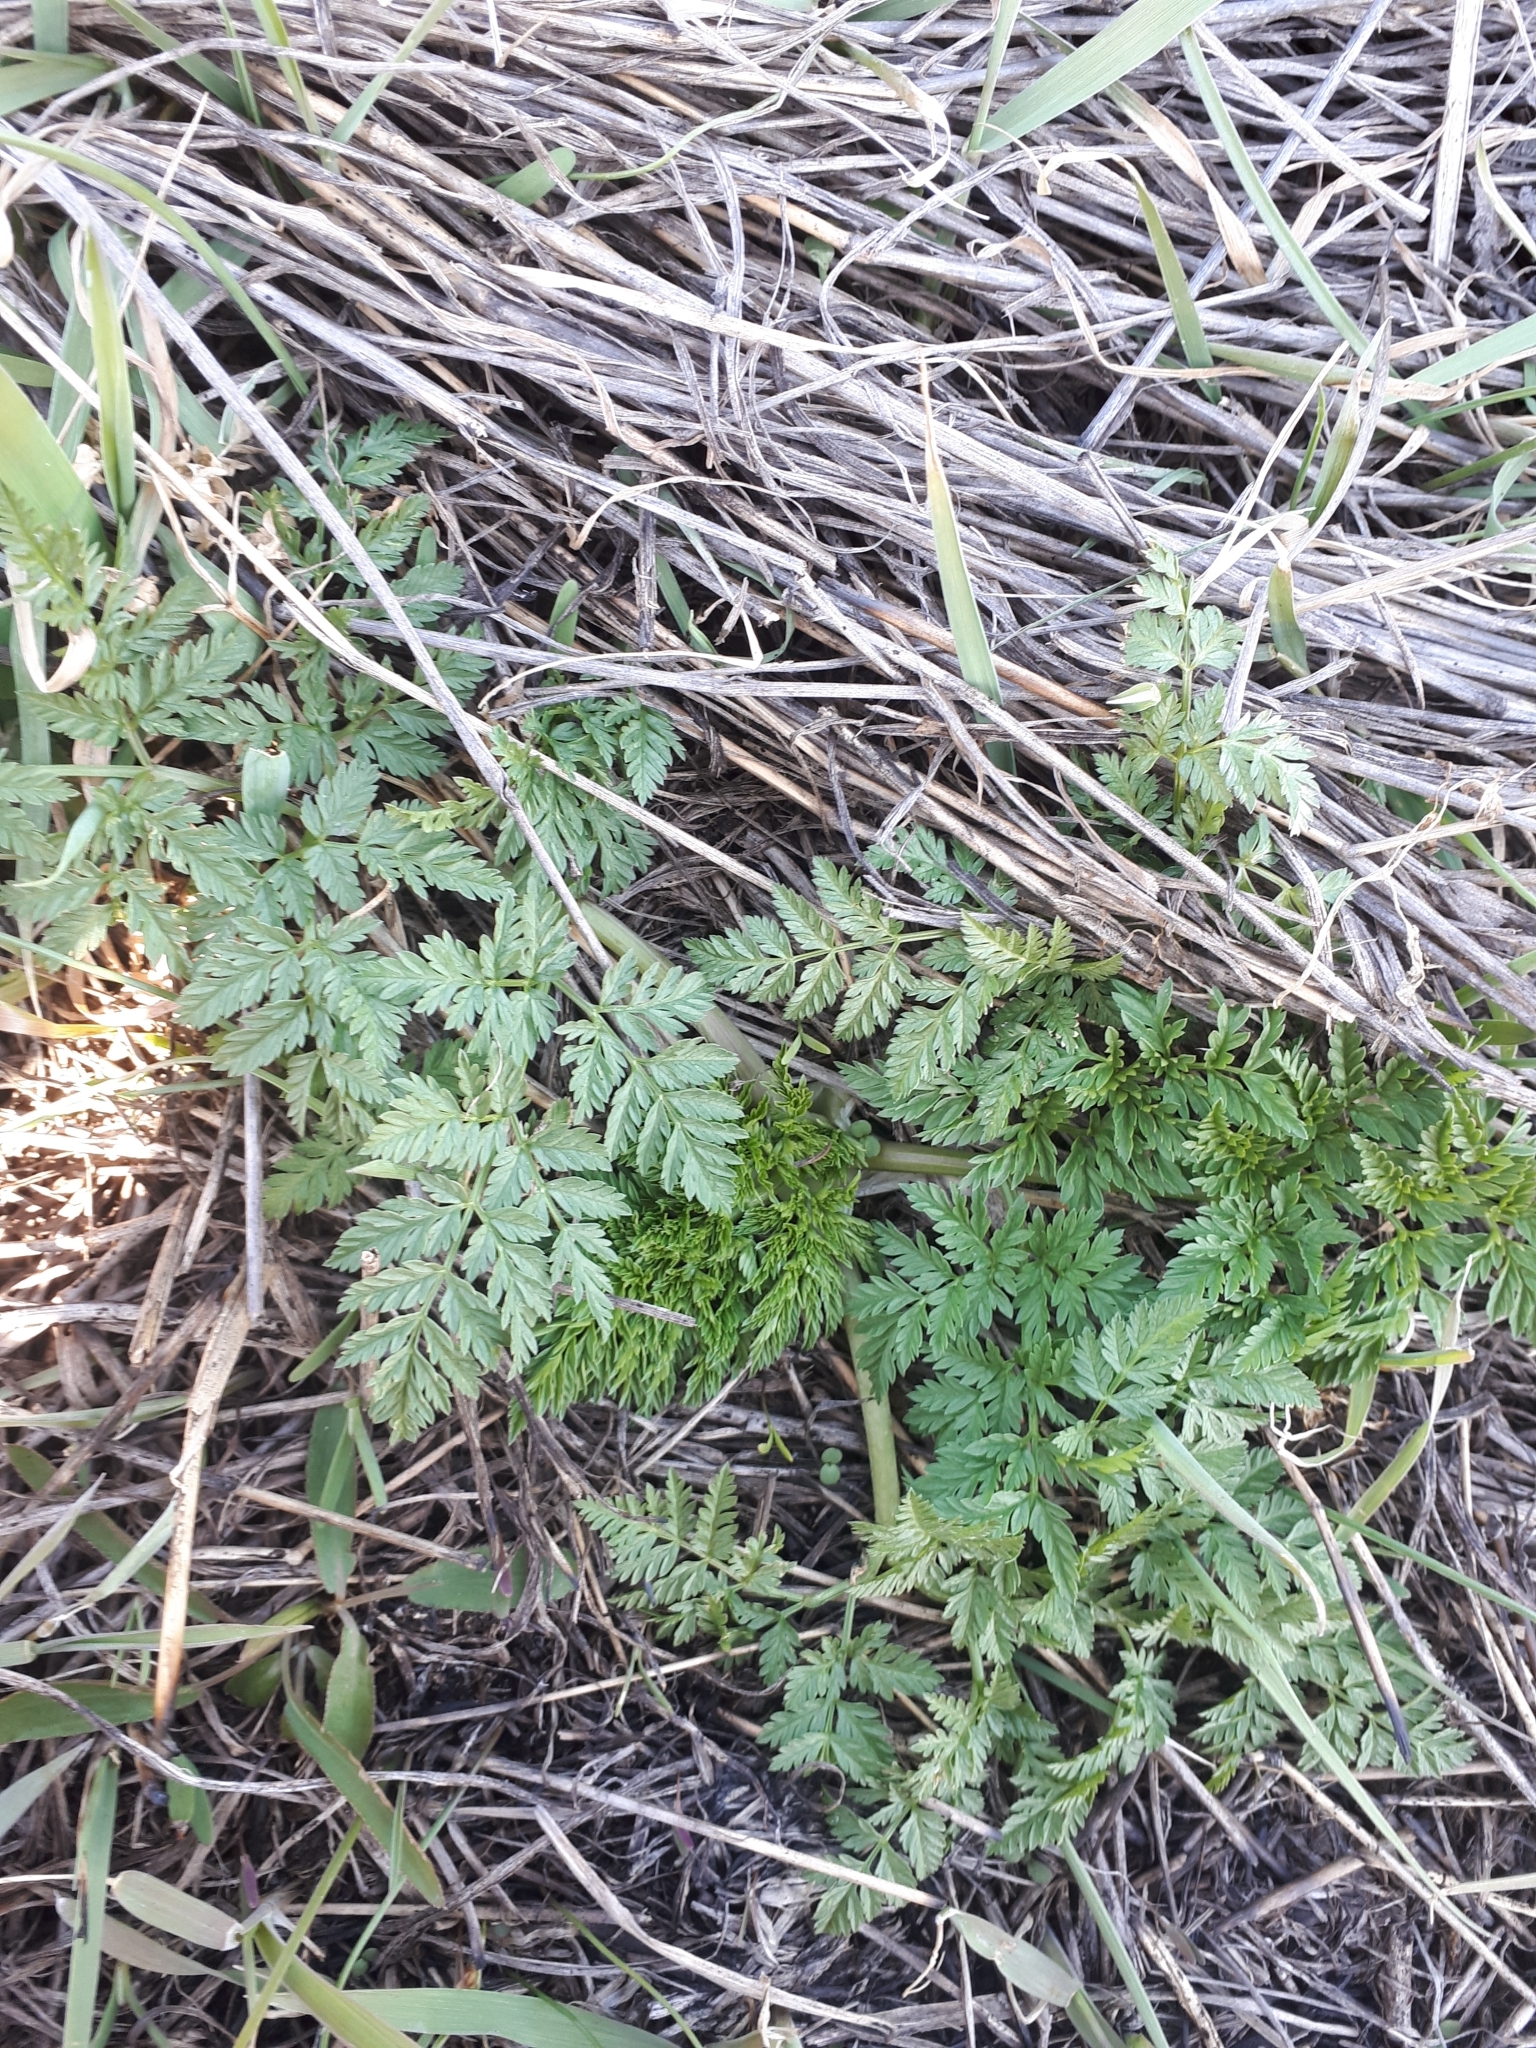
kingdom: Plantae
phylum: Tracheophyta
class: Magnoliopsida
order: Apiales
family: Apiaceae
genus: Conium
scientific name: Conium maculatum
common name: Hemlock
